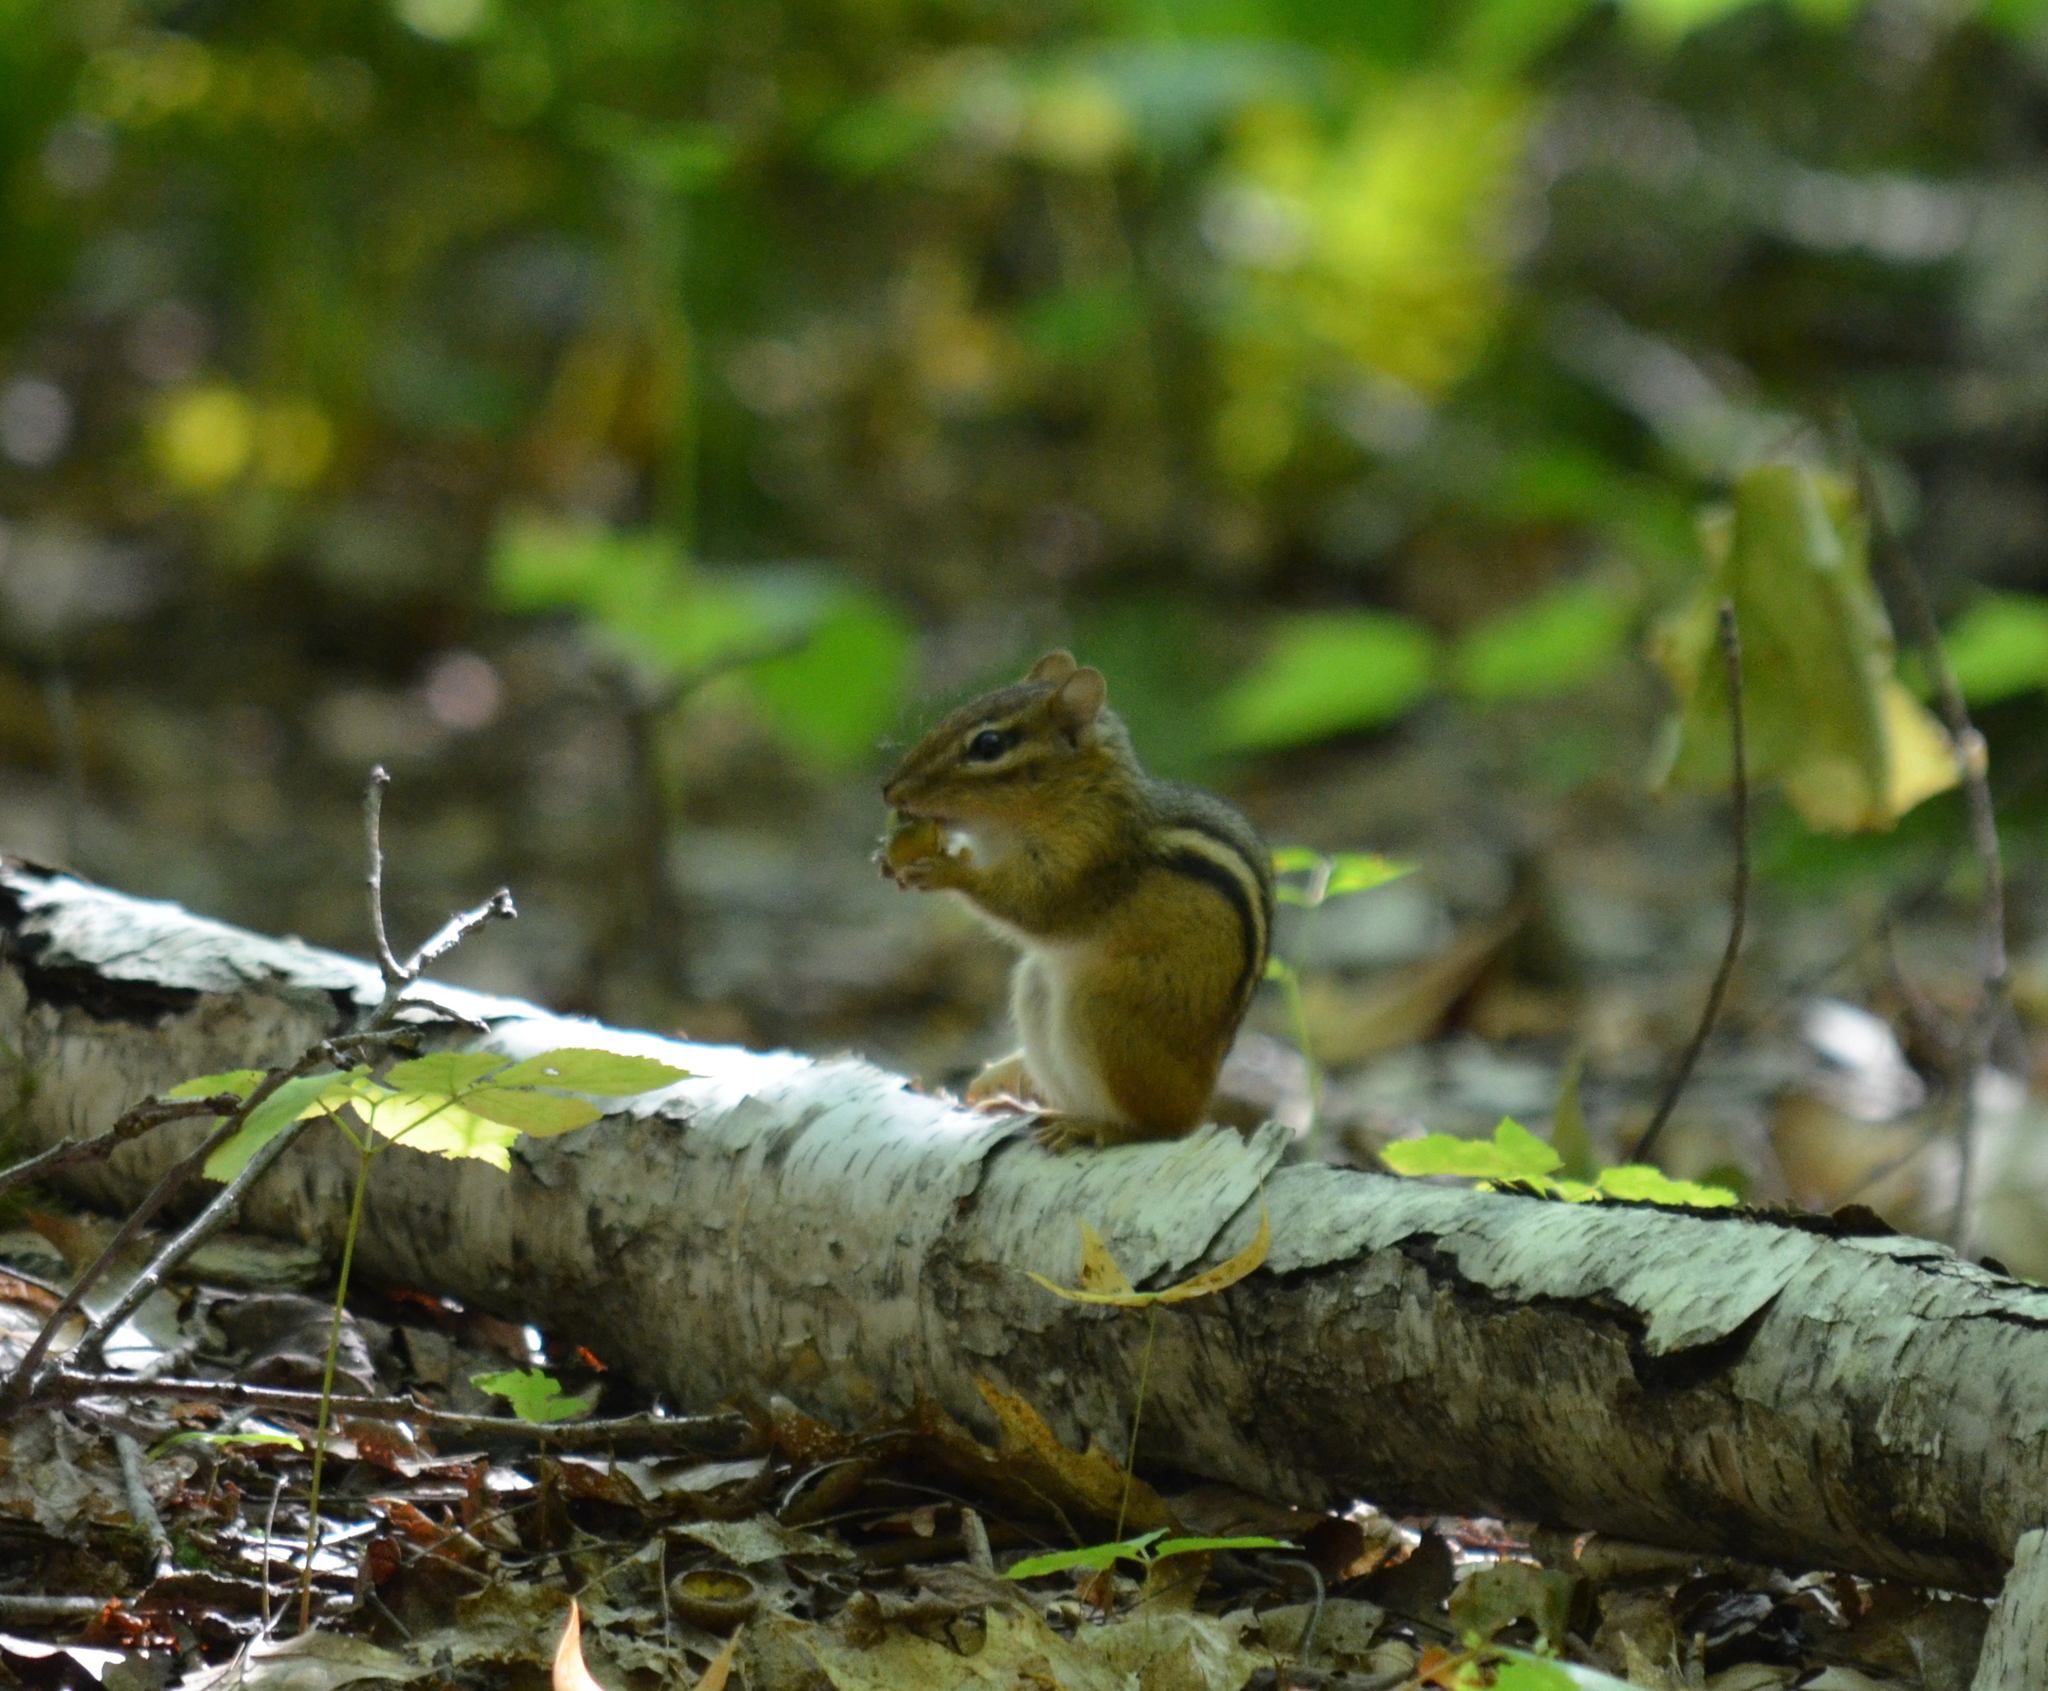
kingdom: Animalia
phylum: Chordata
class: Mammalia
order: Rodentia
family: Sciuridae
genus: Tamias
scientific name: Tamias striatus
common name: Eastern chipmunk
